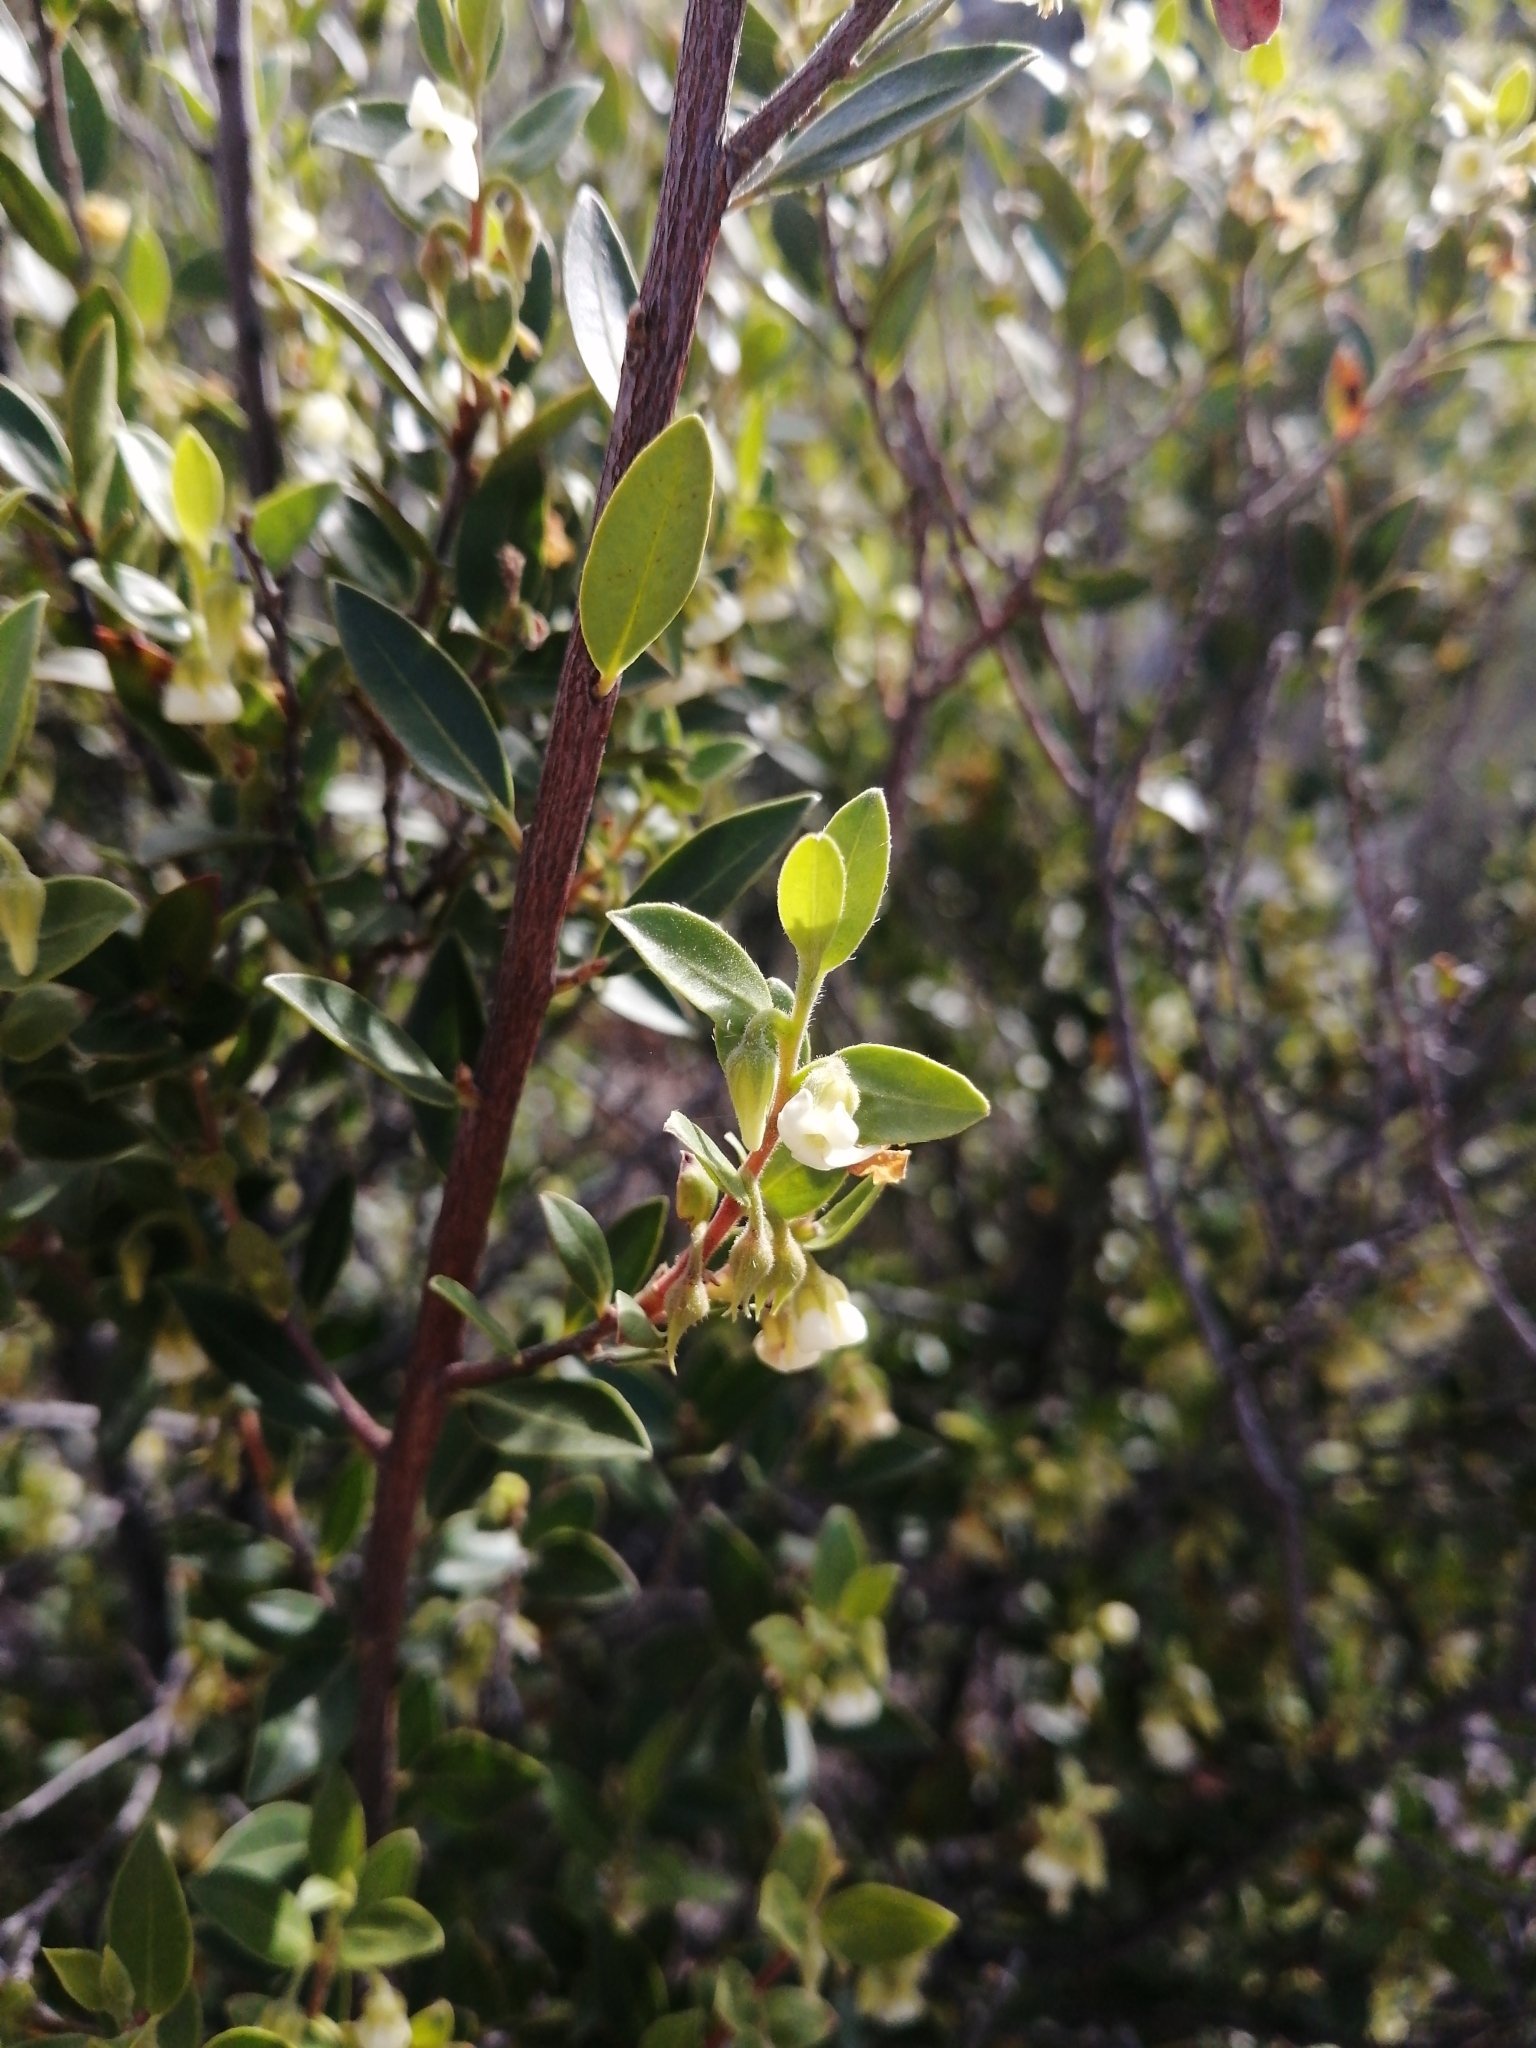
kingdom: Plantae
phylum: Tracheophyta
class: Magnoliopsida
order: Ericales
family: Ebenaceae
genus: Diospyros
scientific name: Diospyros glabra
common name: Fynbos star apple
